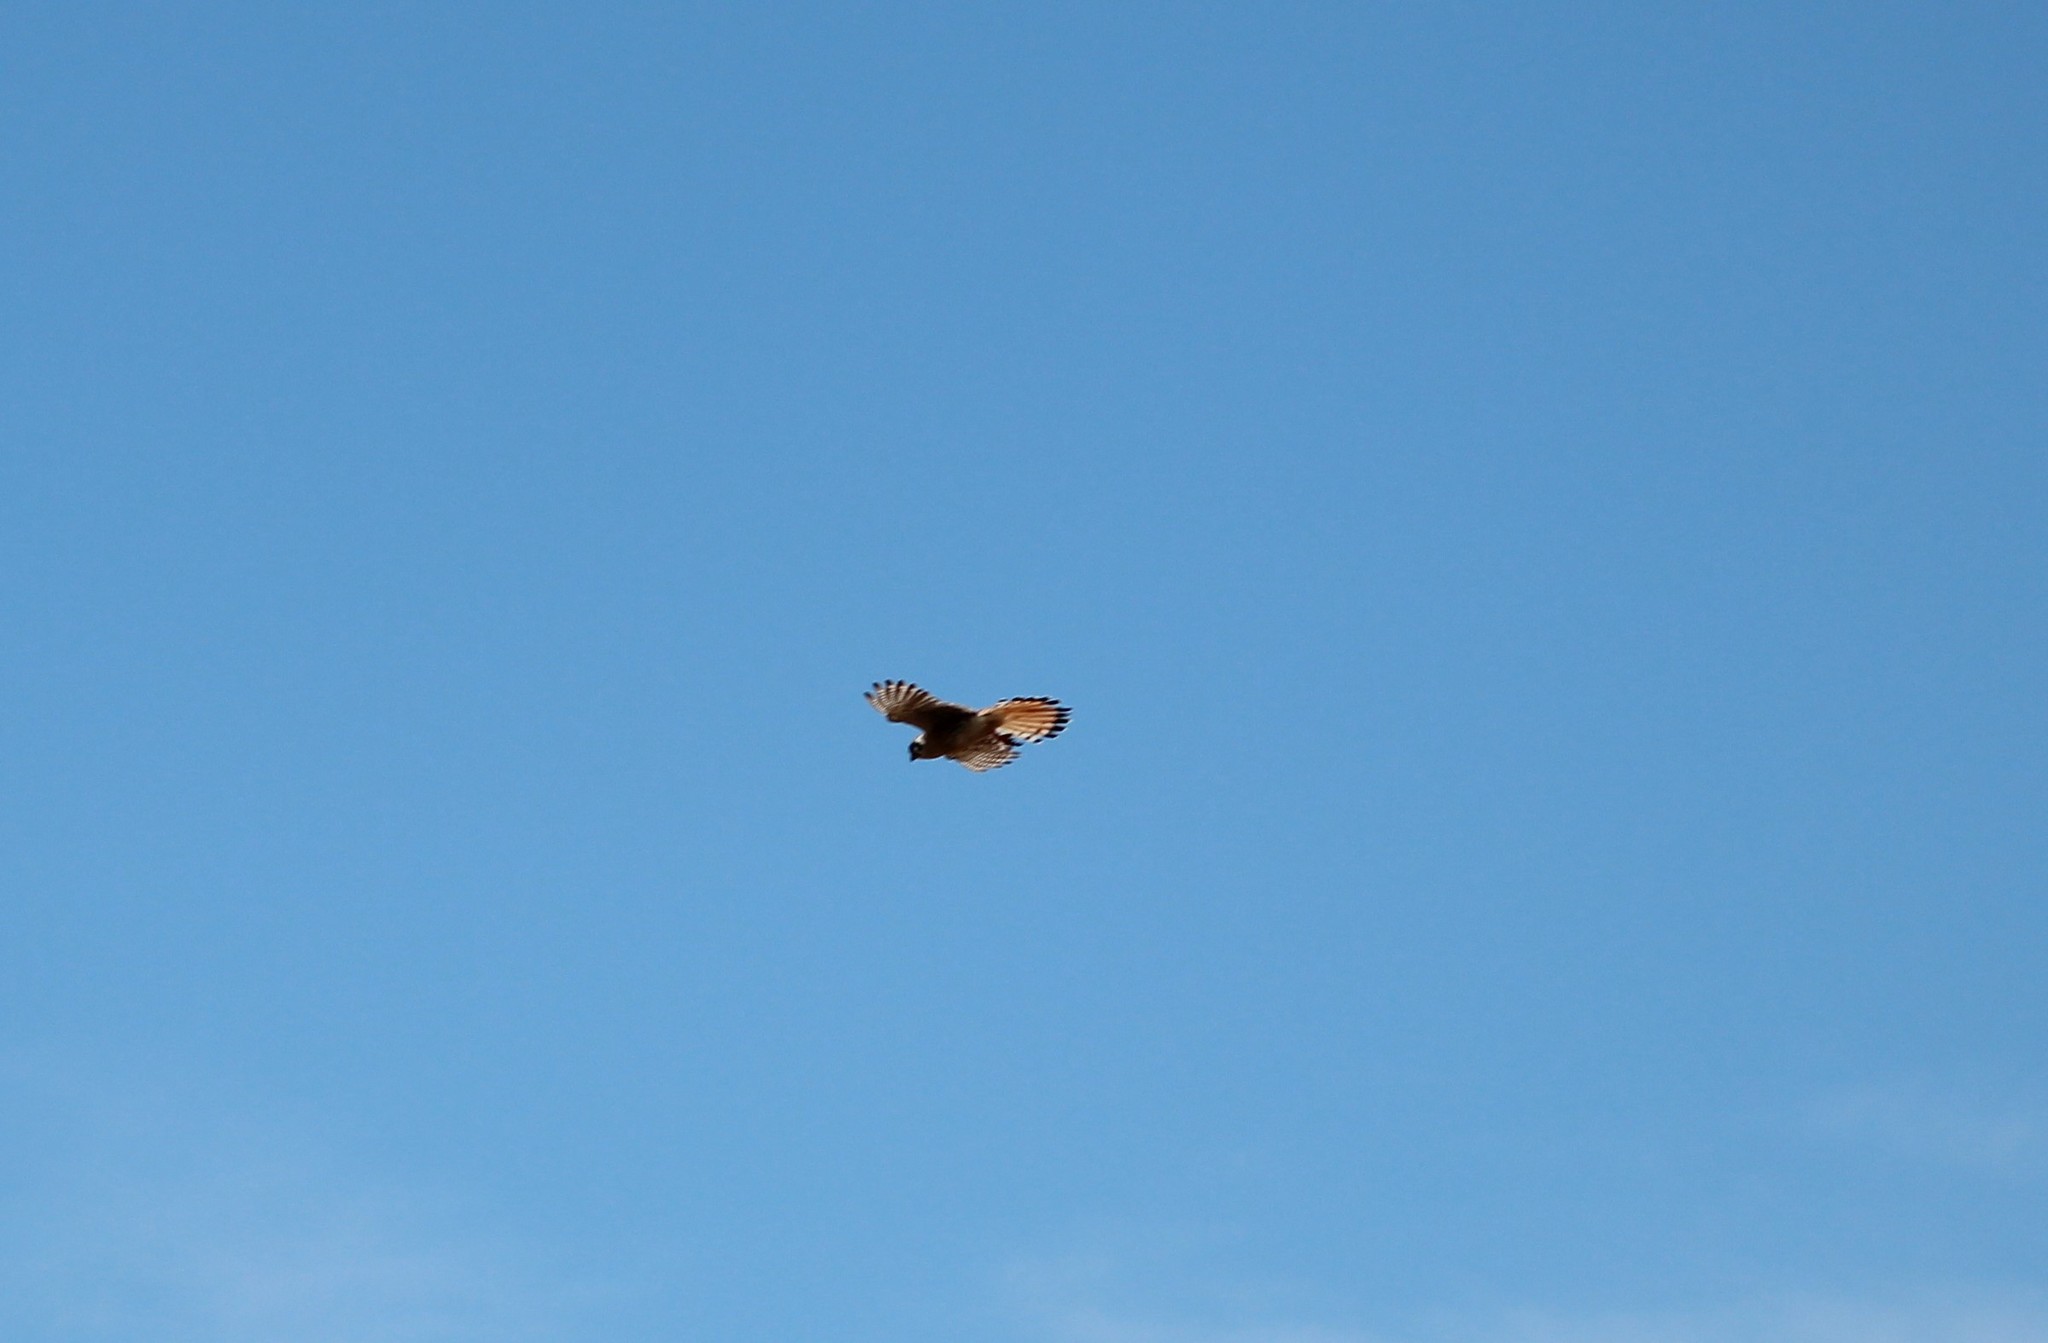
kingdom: Animalia
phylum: Chordata
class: Aves
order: Falconiformes
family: Falconidae
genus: Falco
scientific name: Falco sparverius
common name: American kestrel
